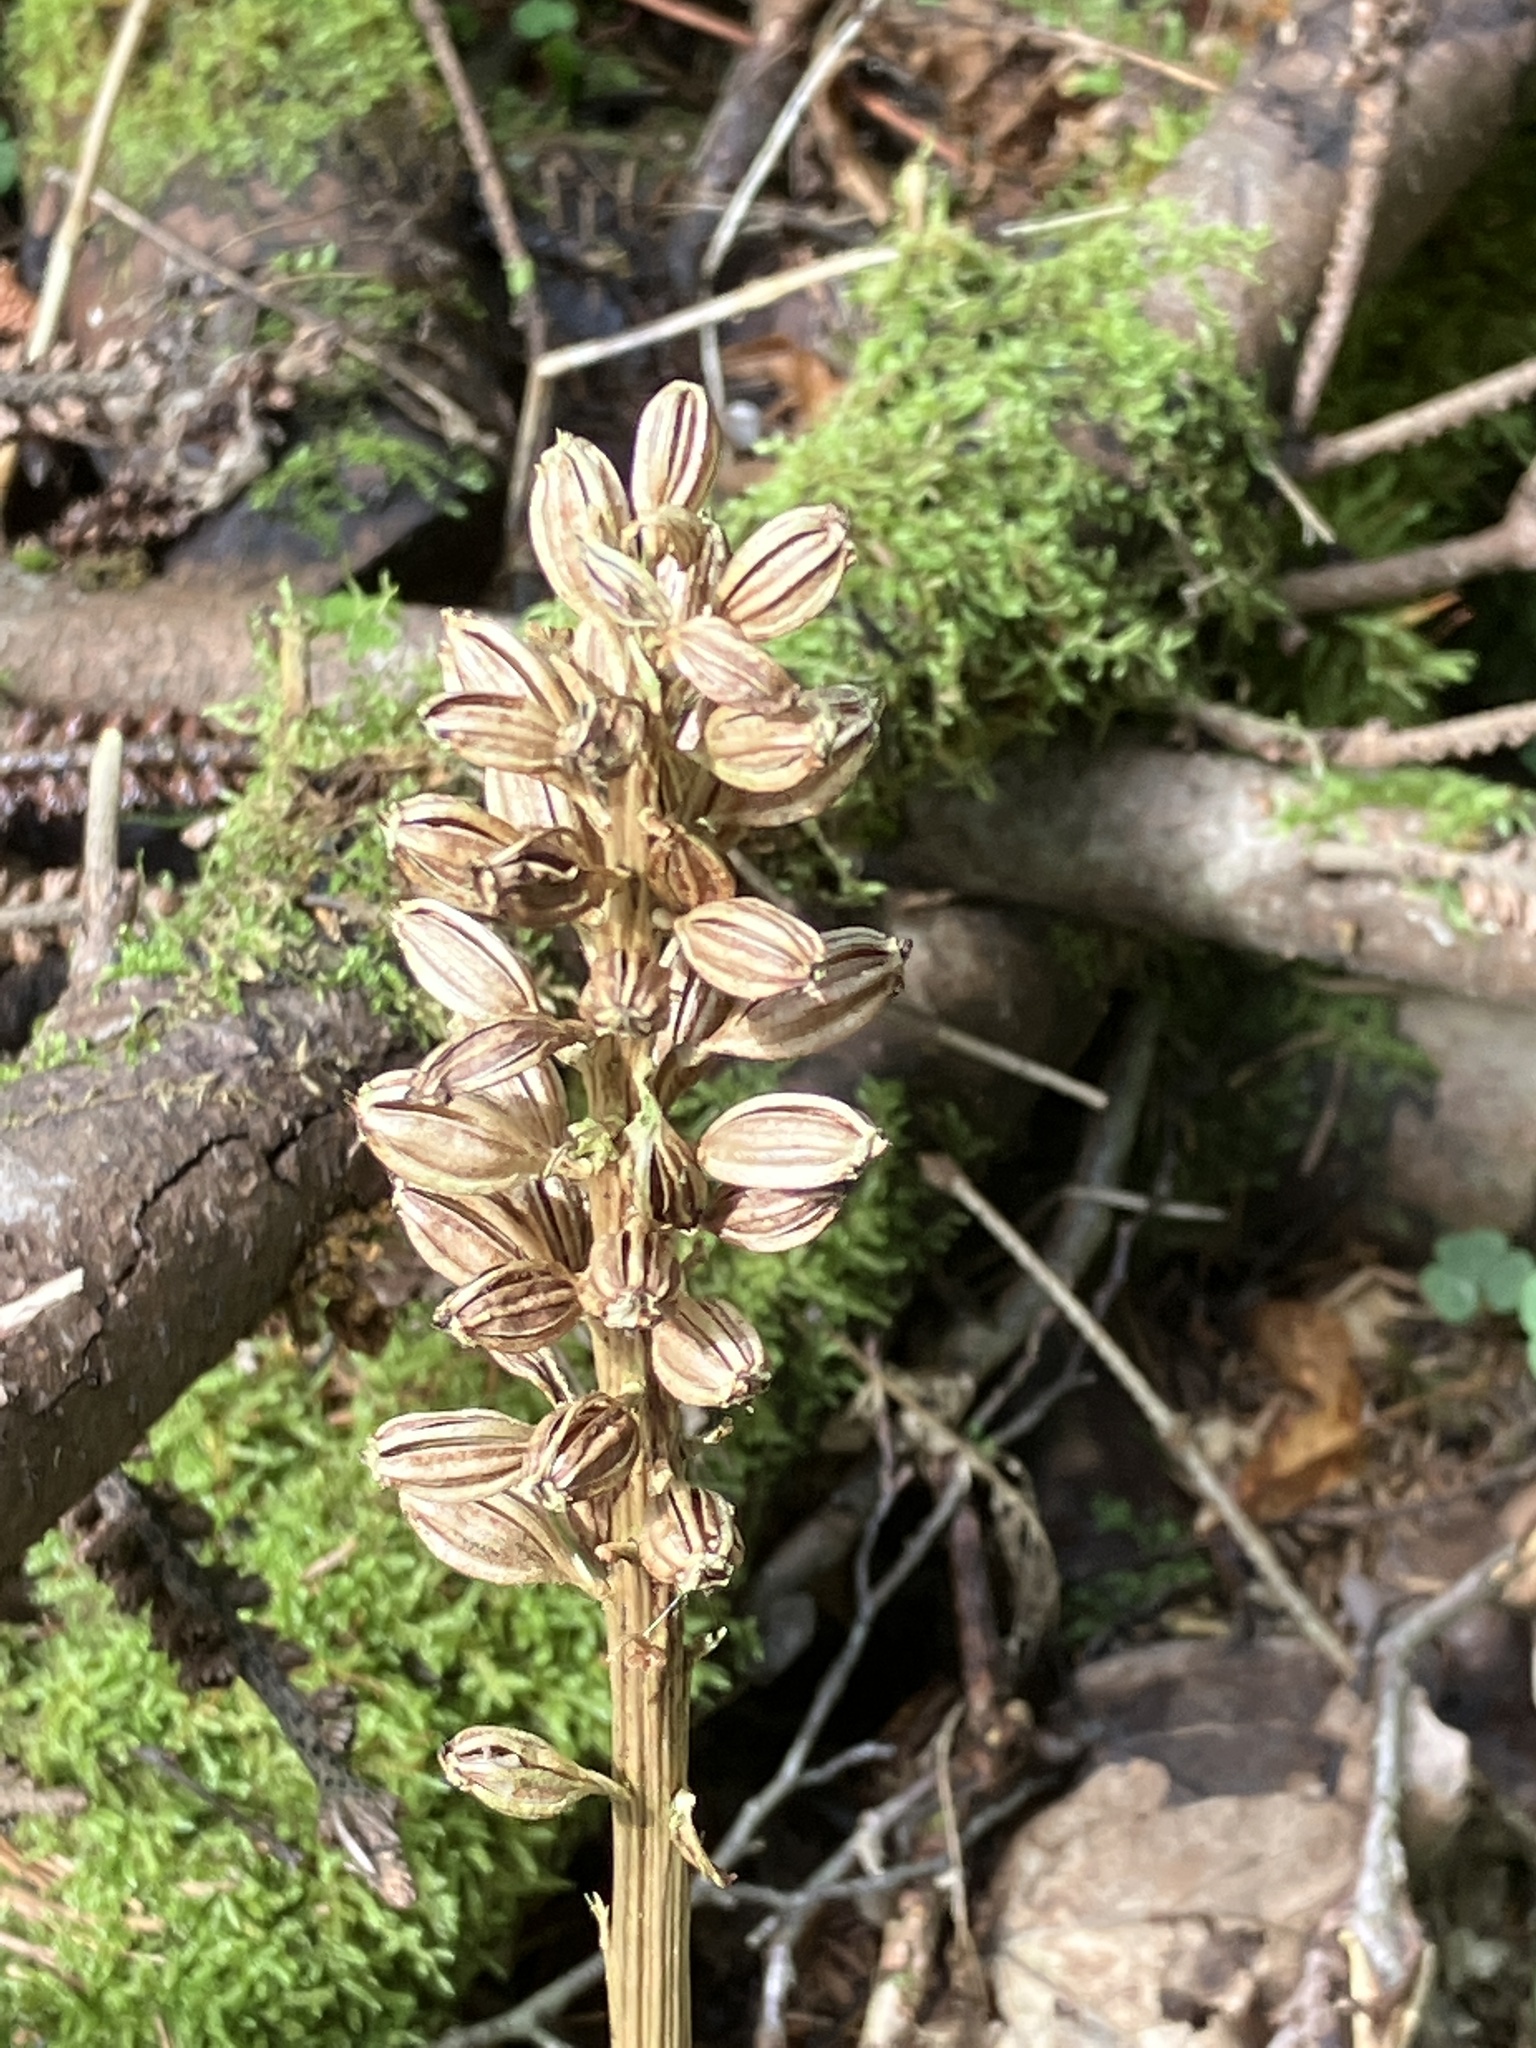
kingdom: Plantae
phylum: Tracheophyta
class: Liliopsida
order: Asparagales
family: Orchidaceae
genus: Neottia
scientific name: Neottia nidus-avis
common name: Bird's-nest orchid
